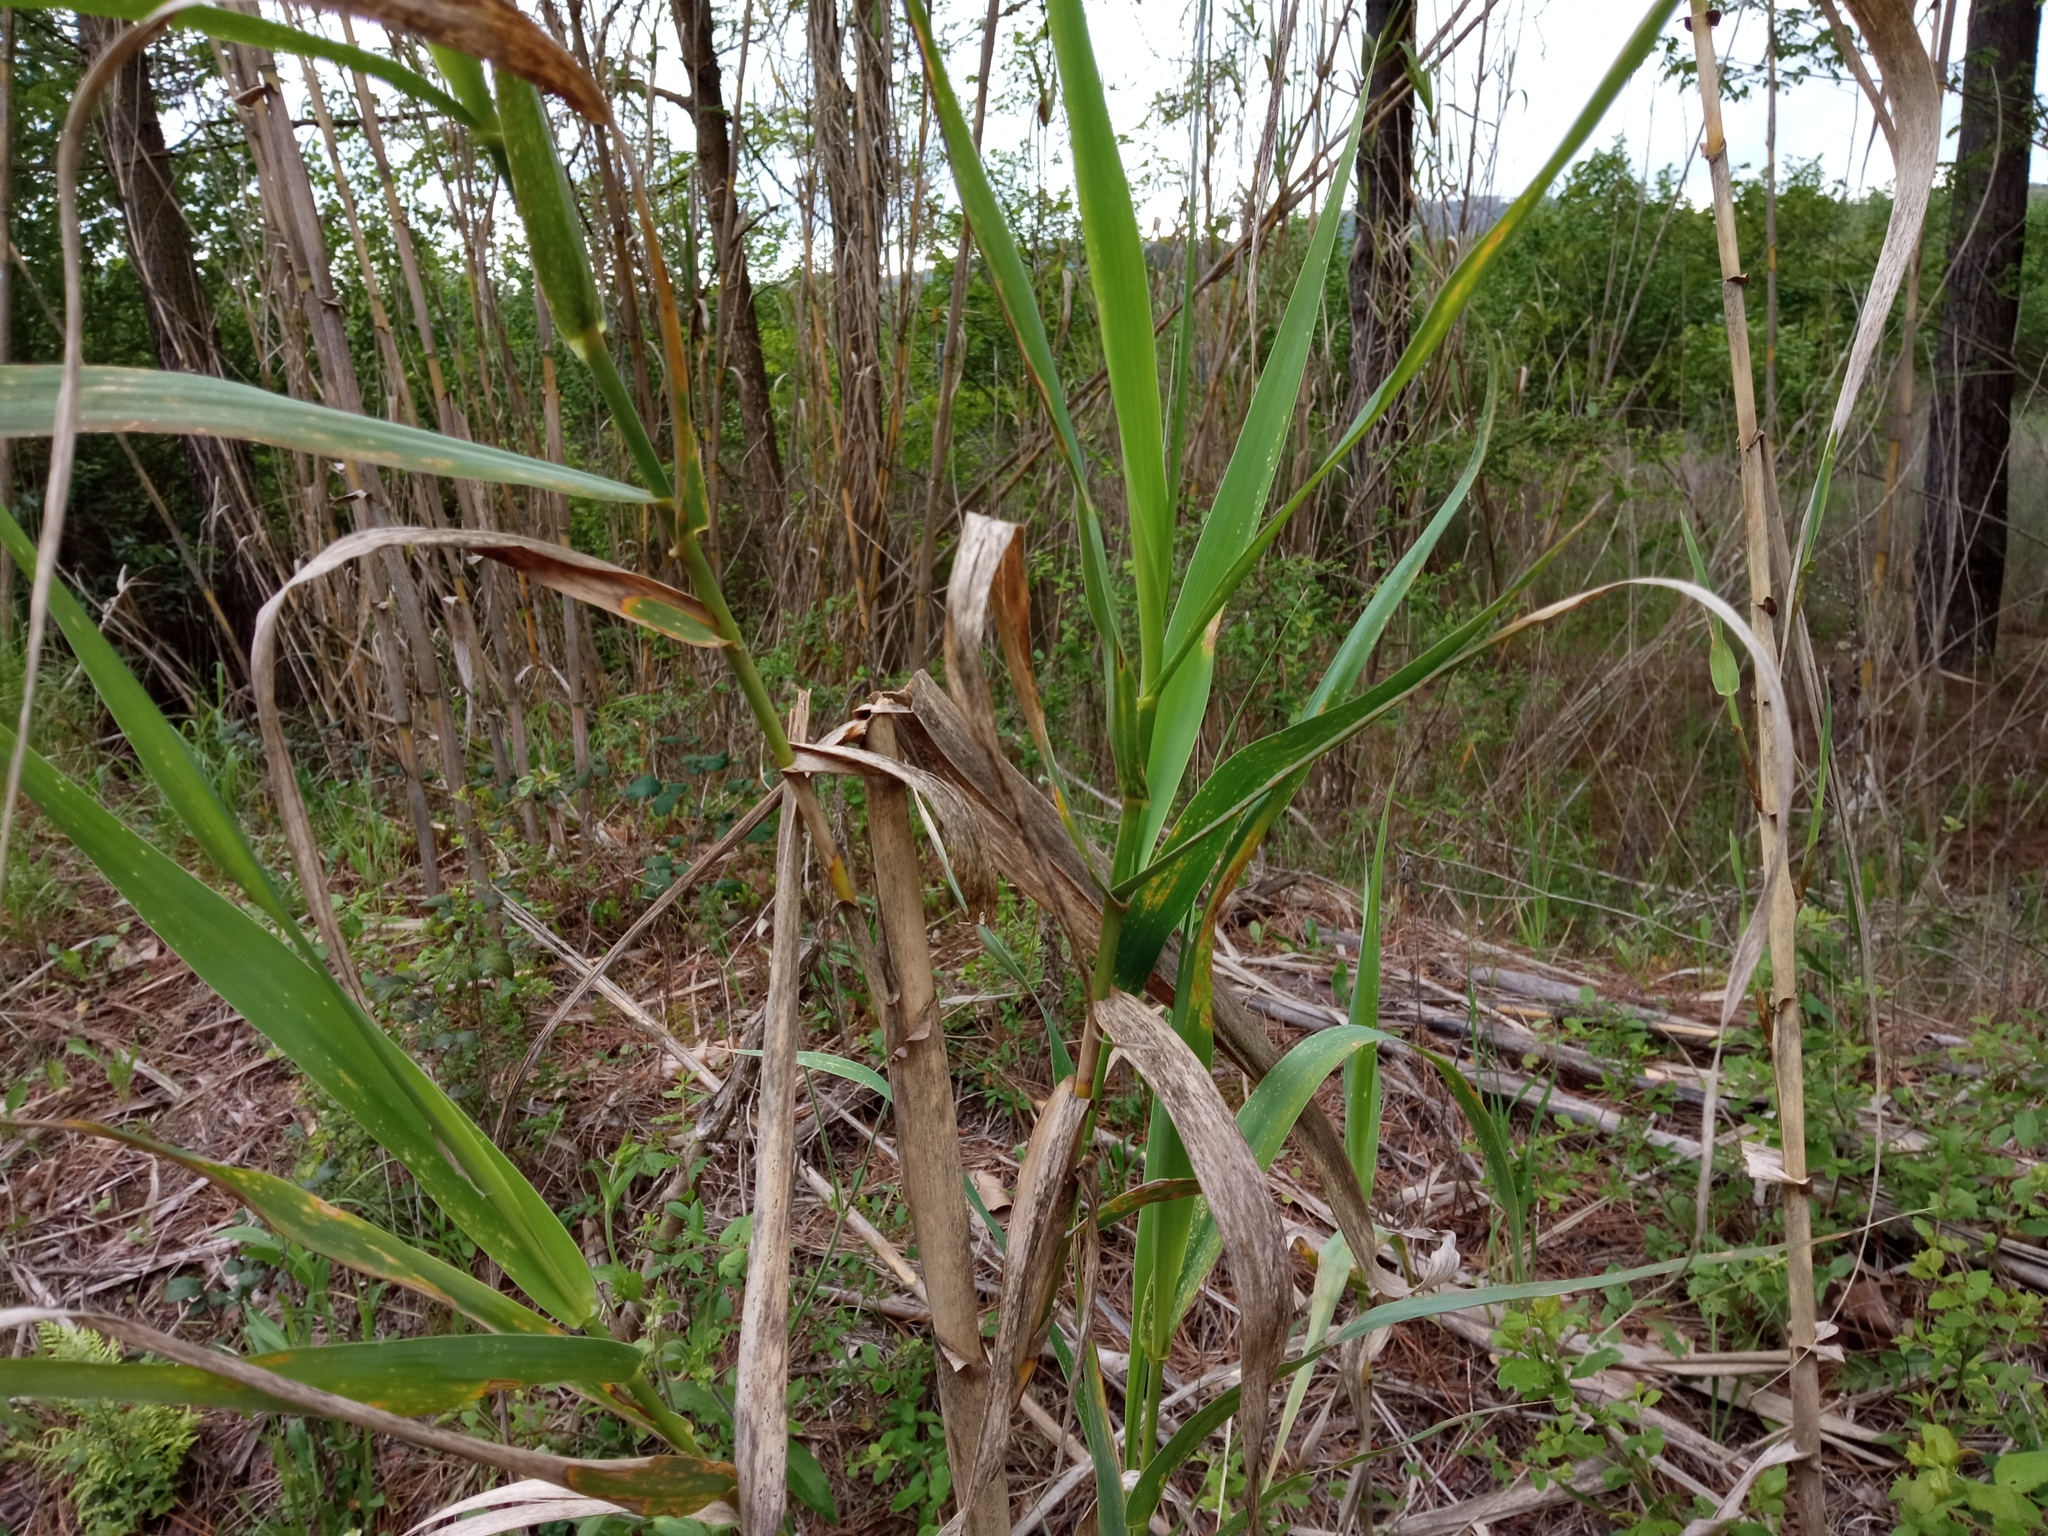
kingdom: Plantae
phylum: Tracheophyta
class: Liliopsida
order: Poales
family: Poaceae
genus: Arundo
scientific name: Arundo donax
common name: Giant reed
